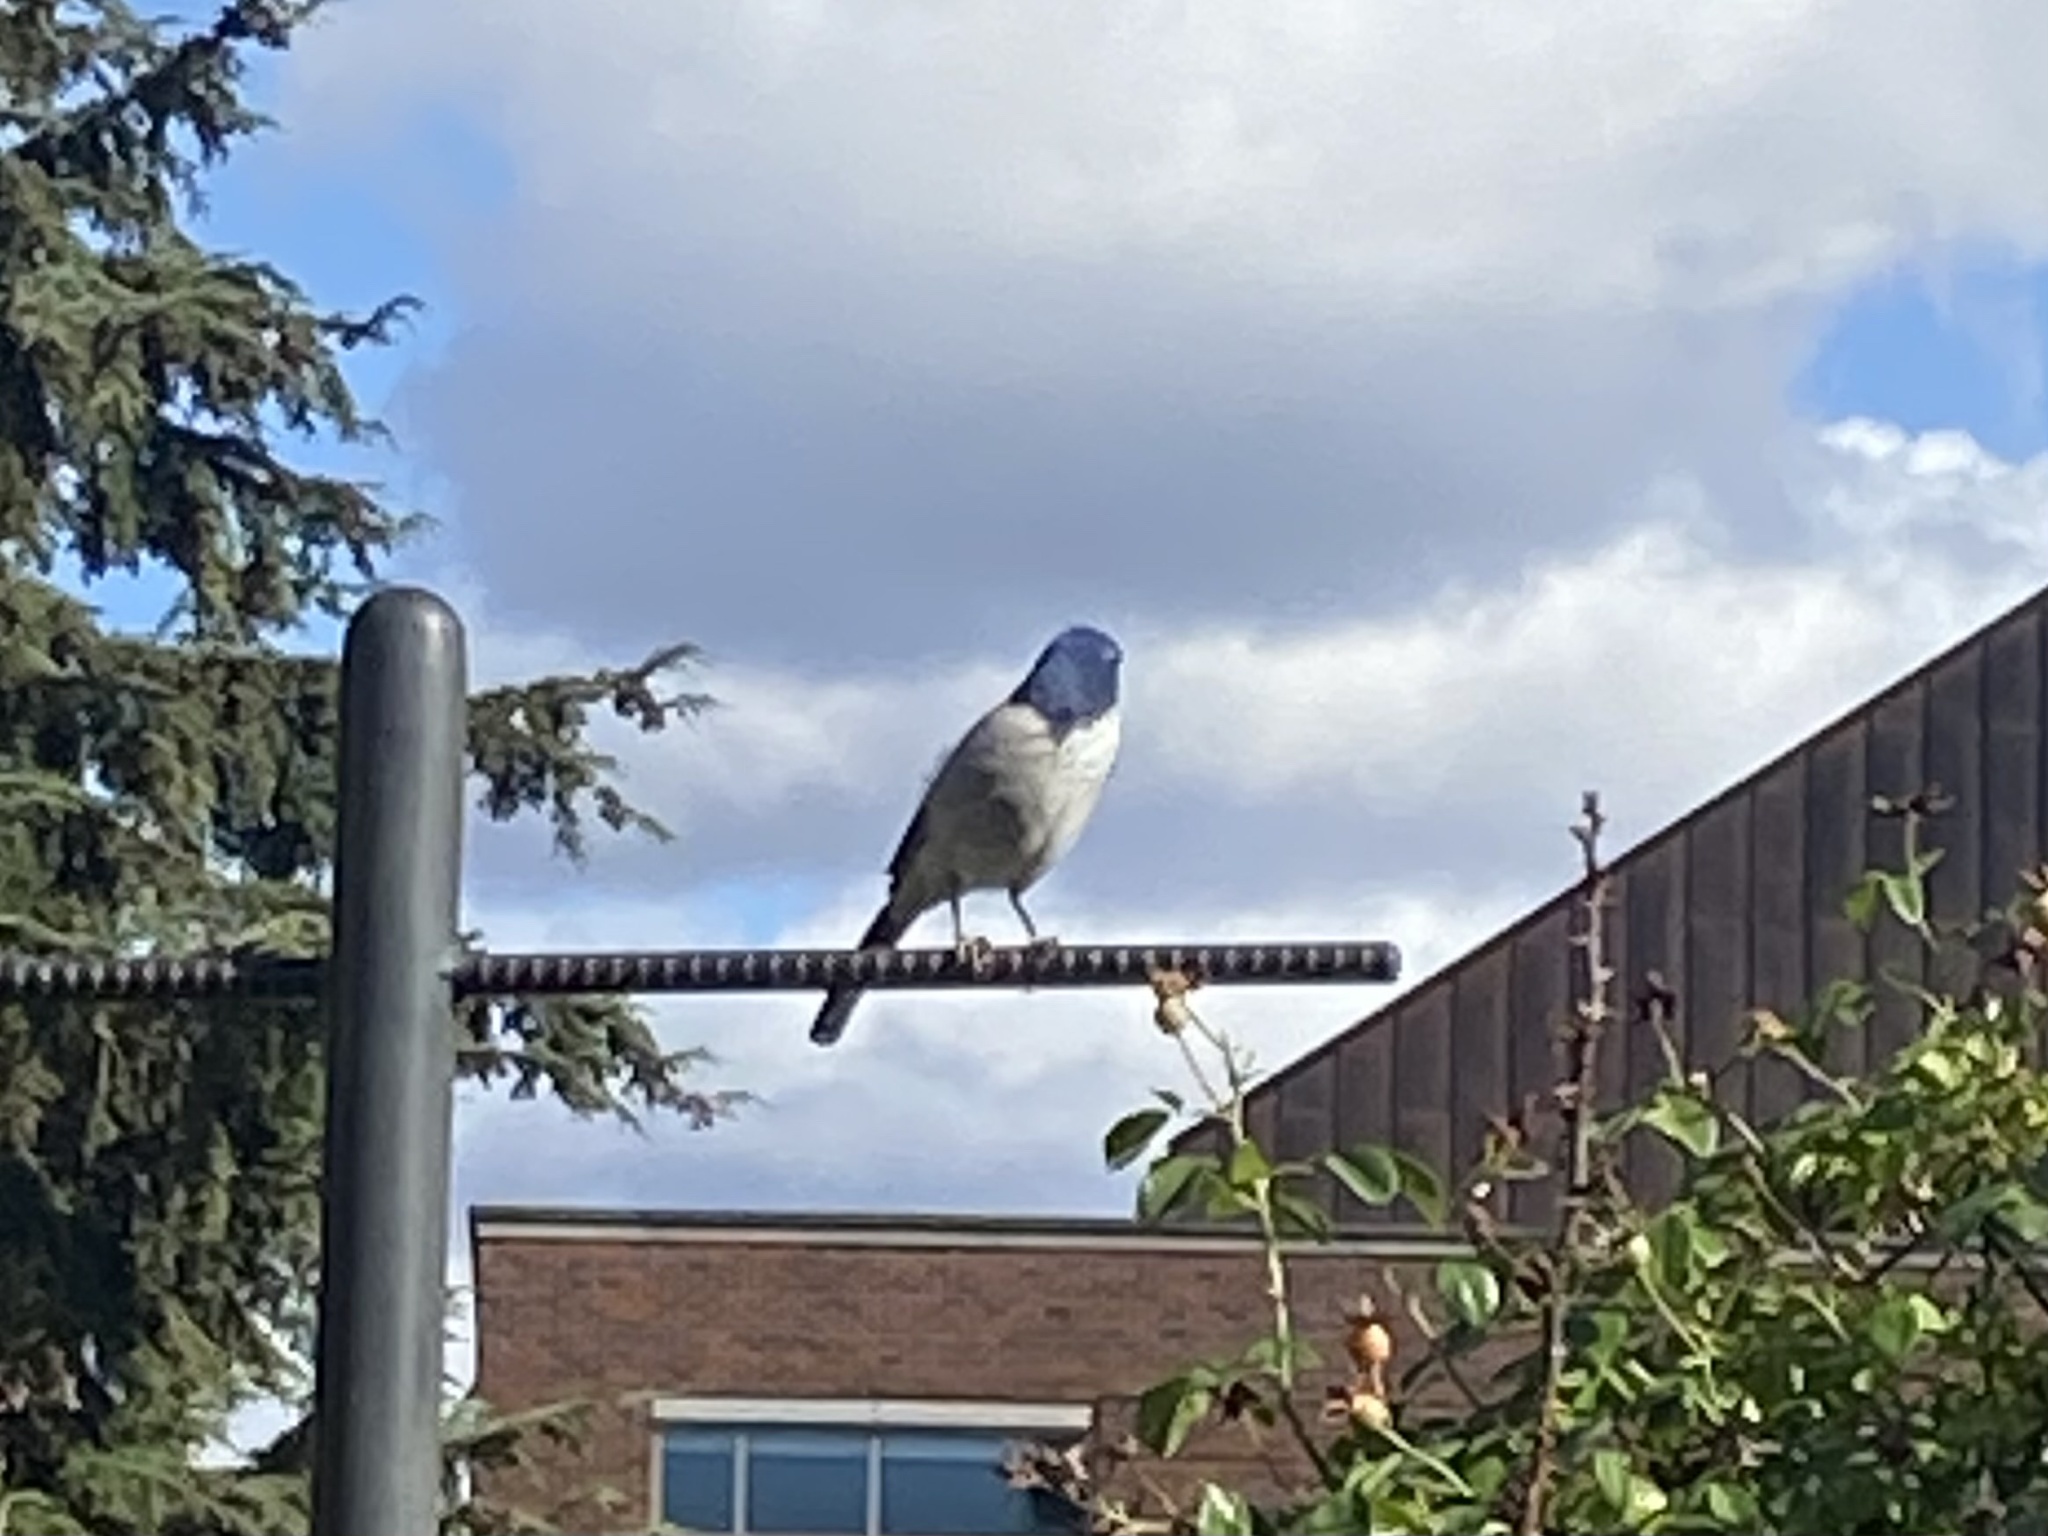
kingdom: Animalia
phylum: Chordata
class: Aves
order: Passeriformes
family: Corvidae
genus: Aphelocoma
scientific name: Aphelocoma californica
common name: California scrub-jay
